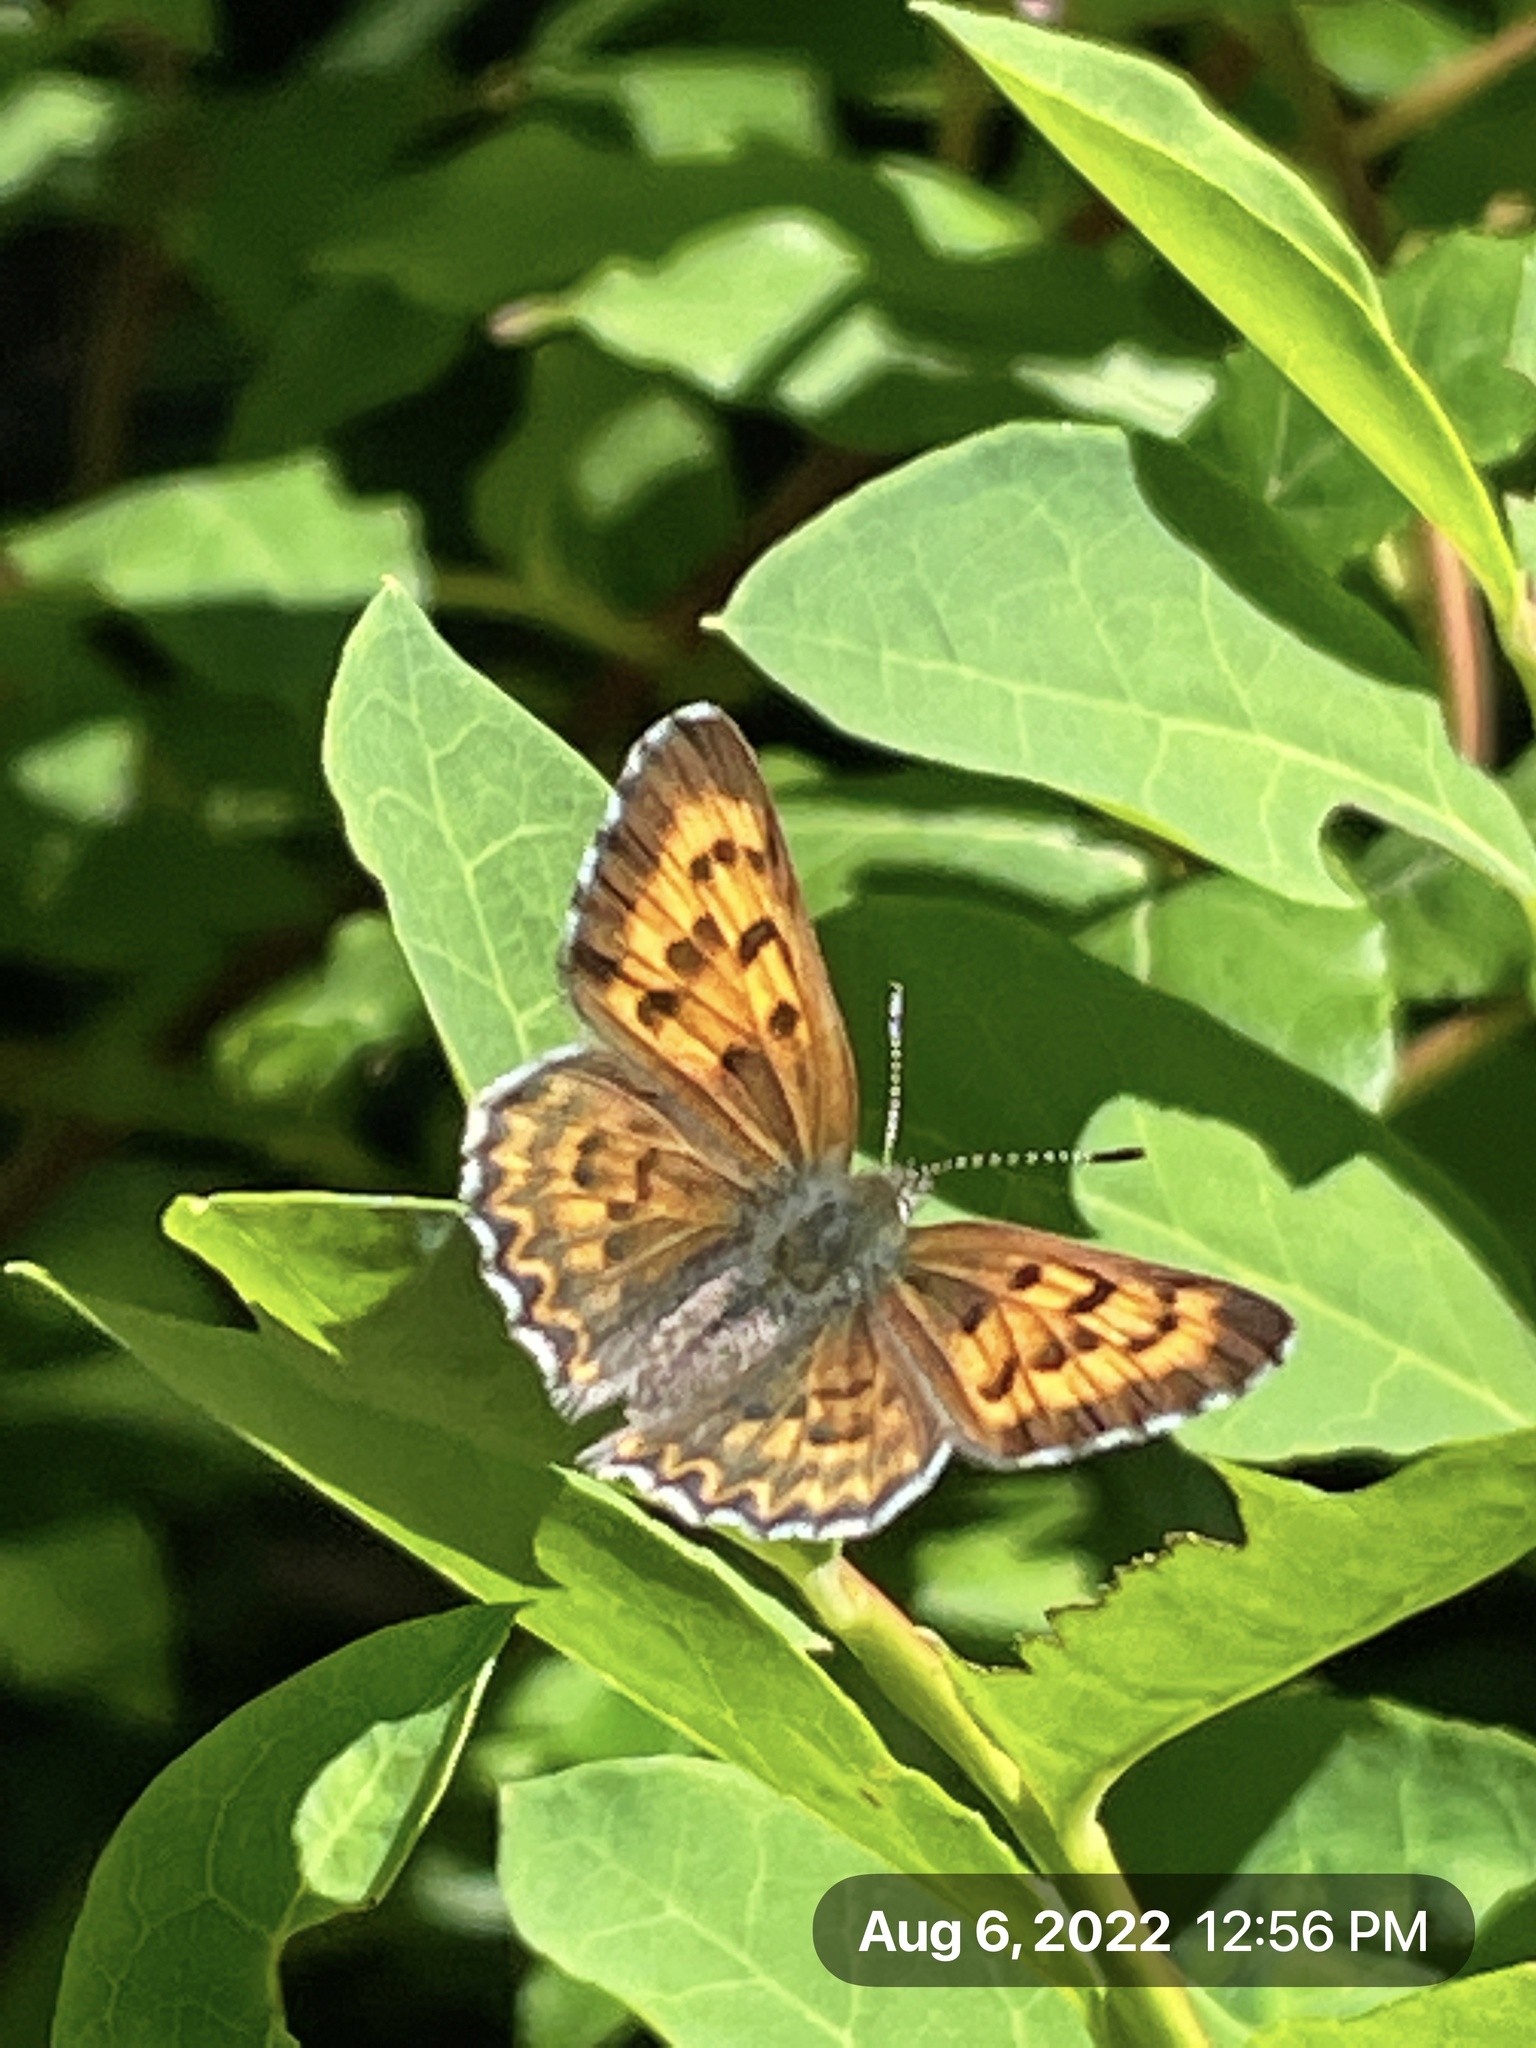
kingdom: Animalia
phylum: Arthropoda
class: Insecta
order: Lepidoptera
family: Lycaenidae
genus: Tharsalea
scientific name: Tharsalea mariposa
